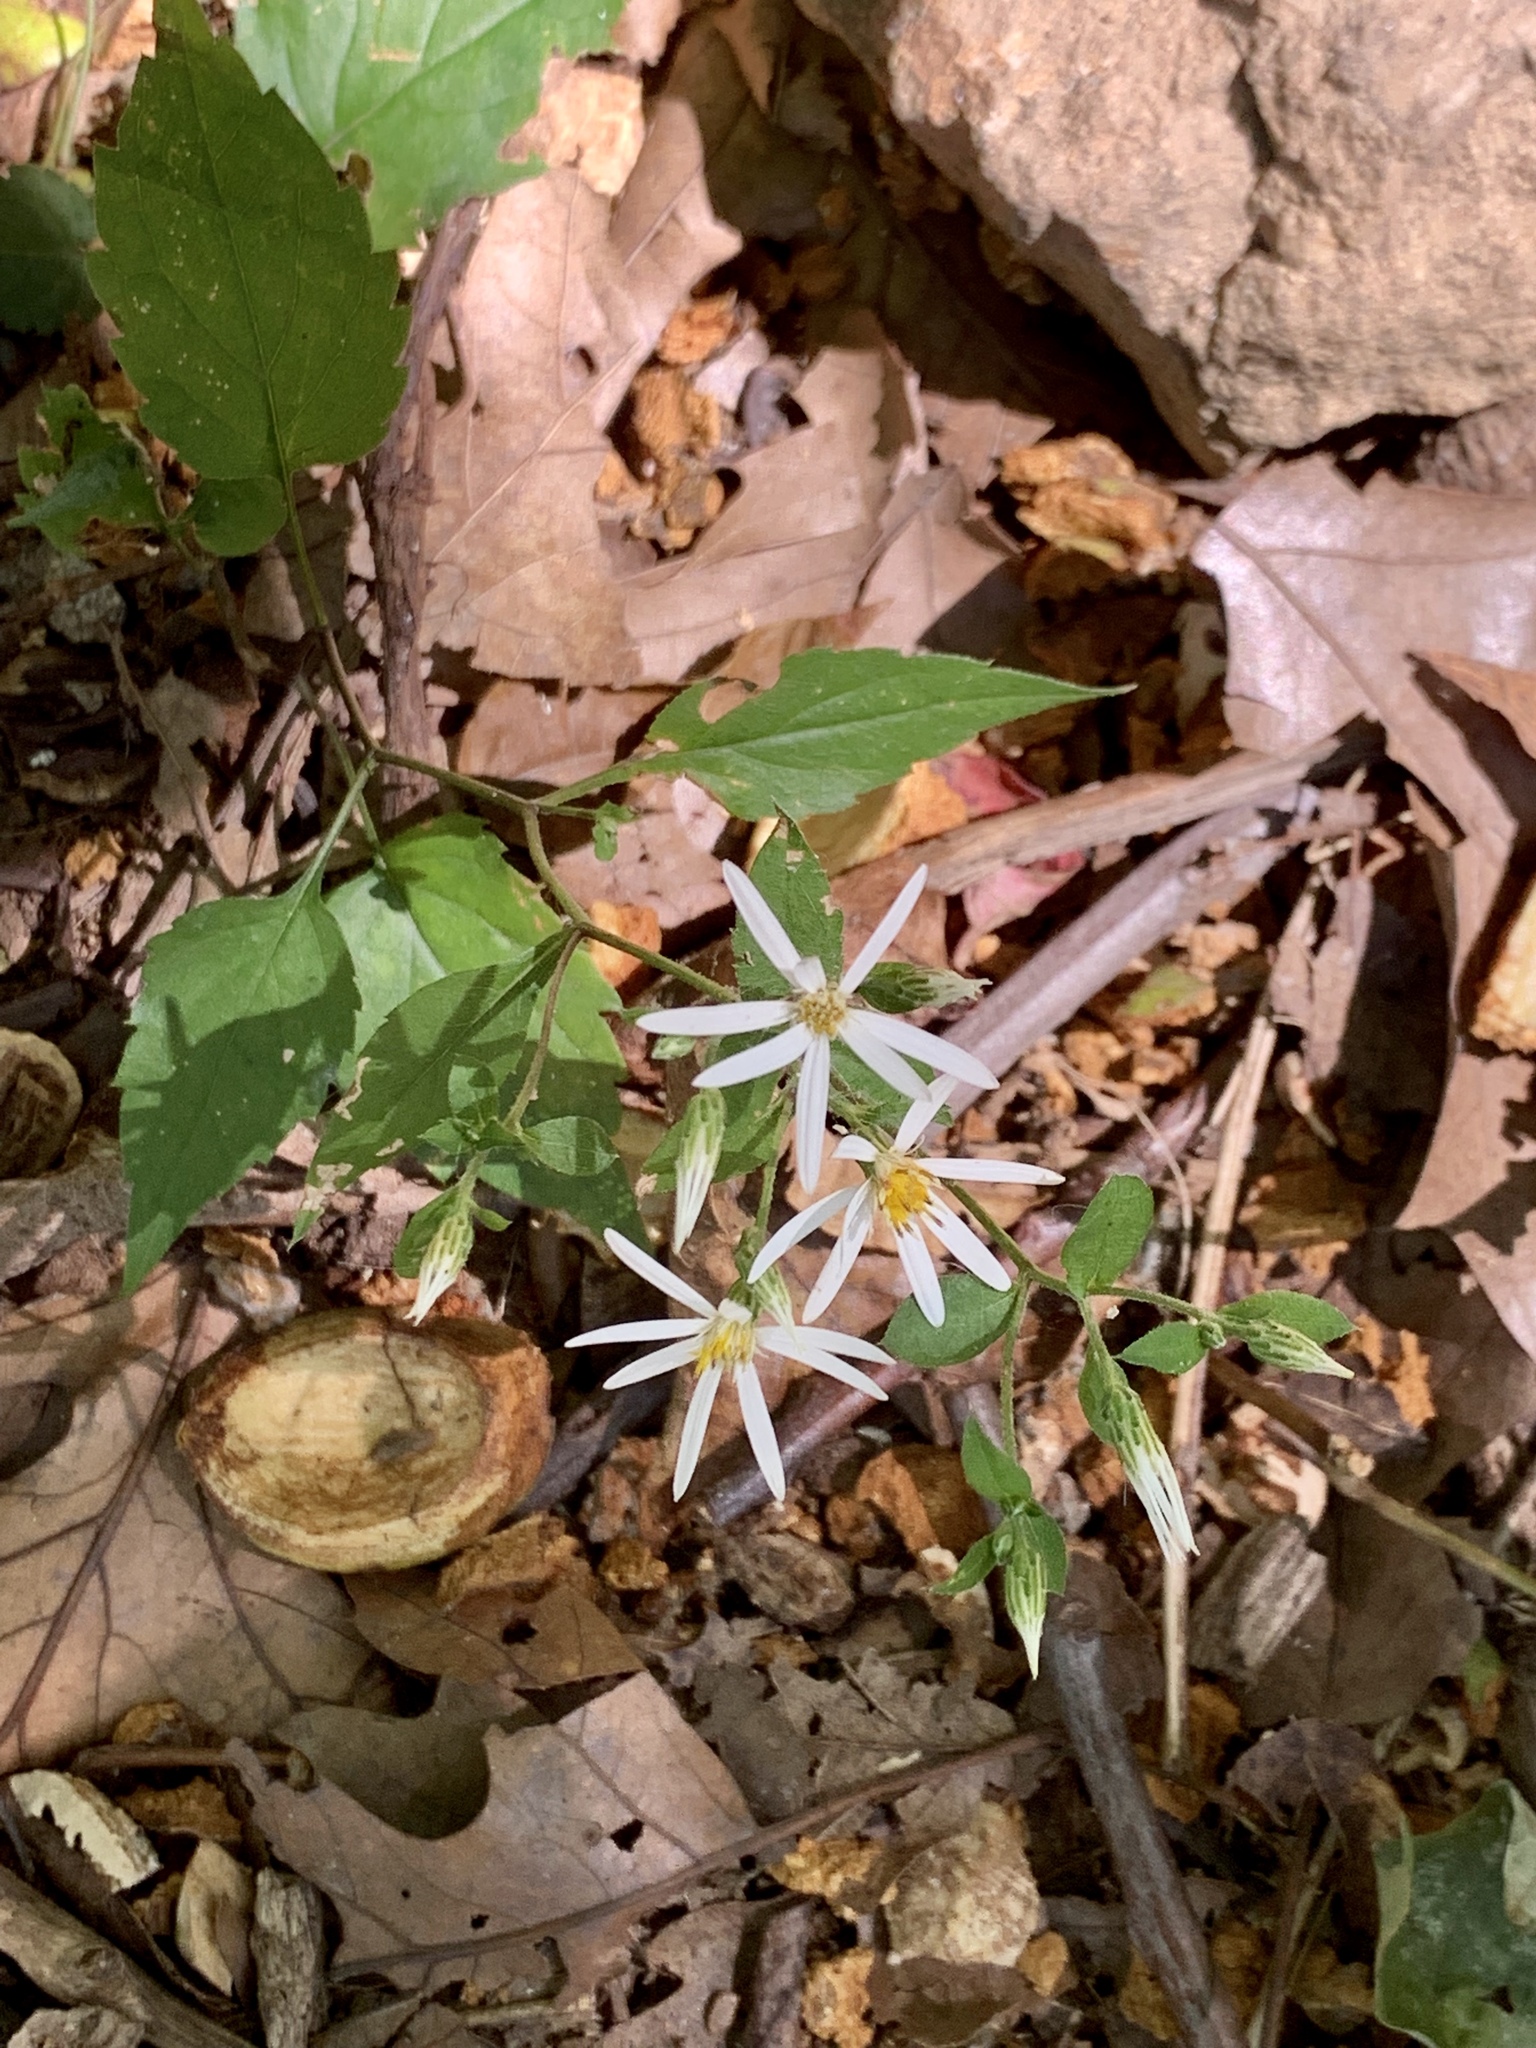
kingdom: Plantae
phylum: Tracheophyta
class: Magnoliopsida
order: Asterales
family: Asteraceae
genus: Eurybia
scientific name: Eurybia divaricata
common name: White wood aster
